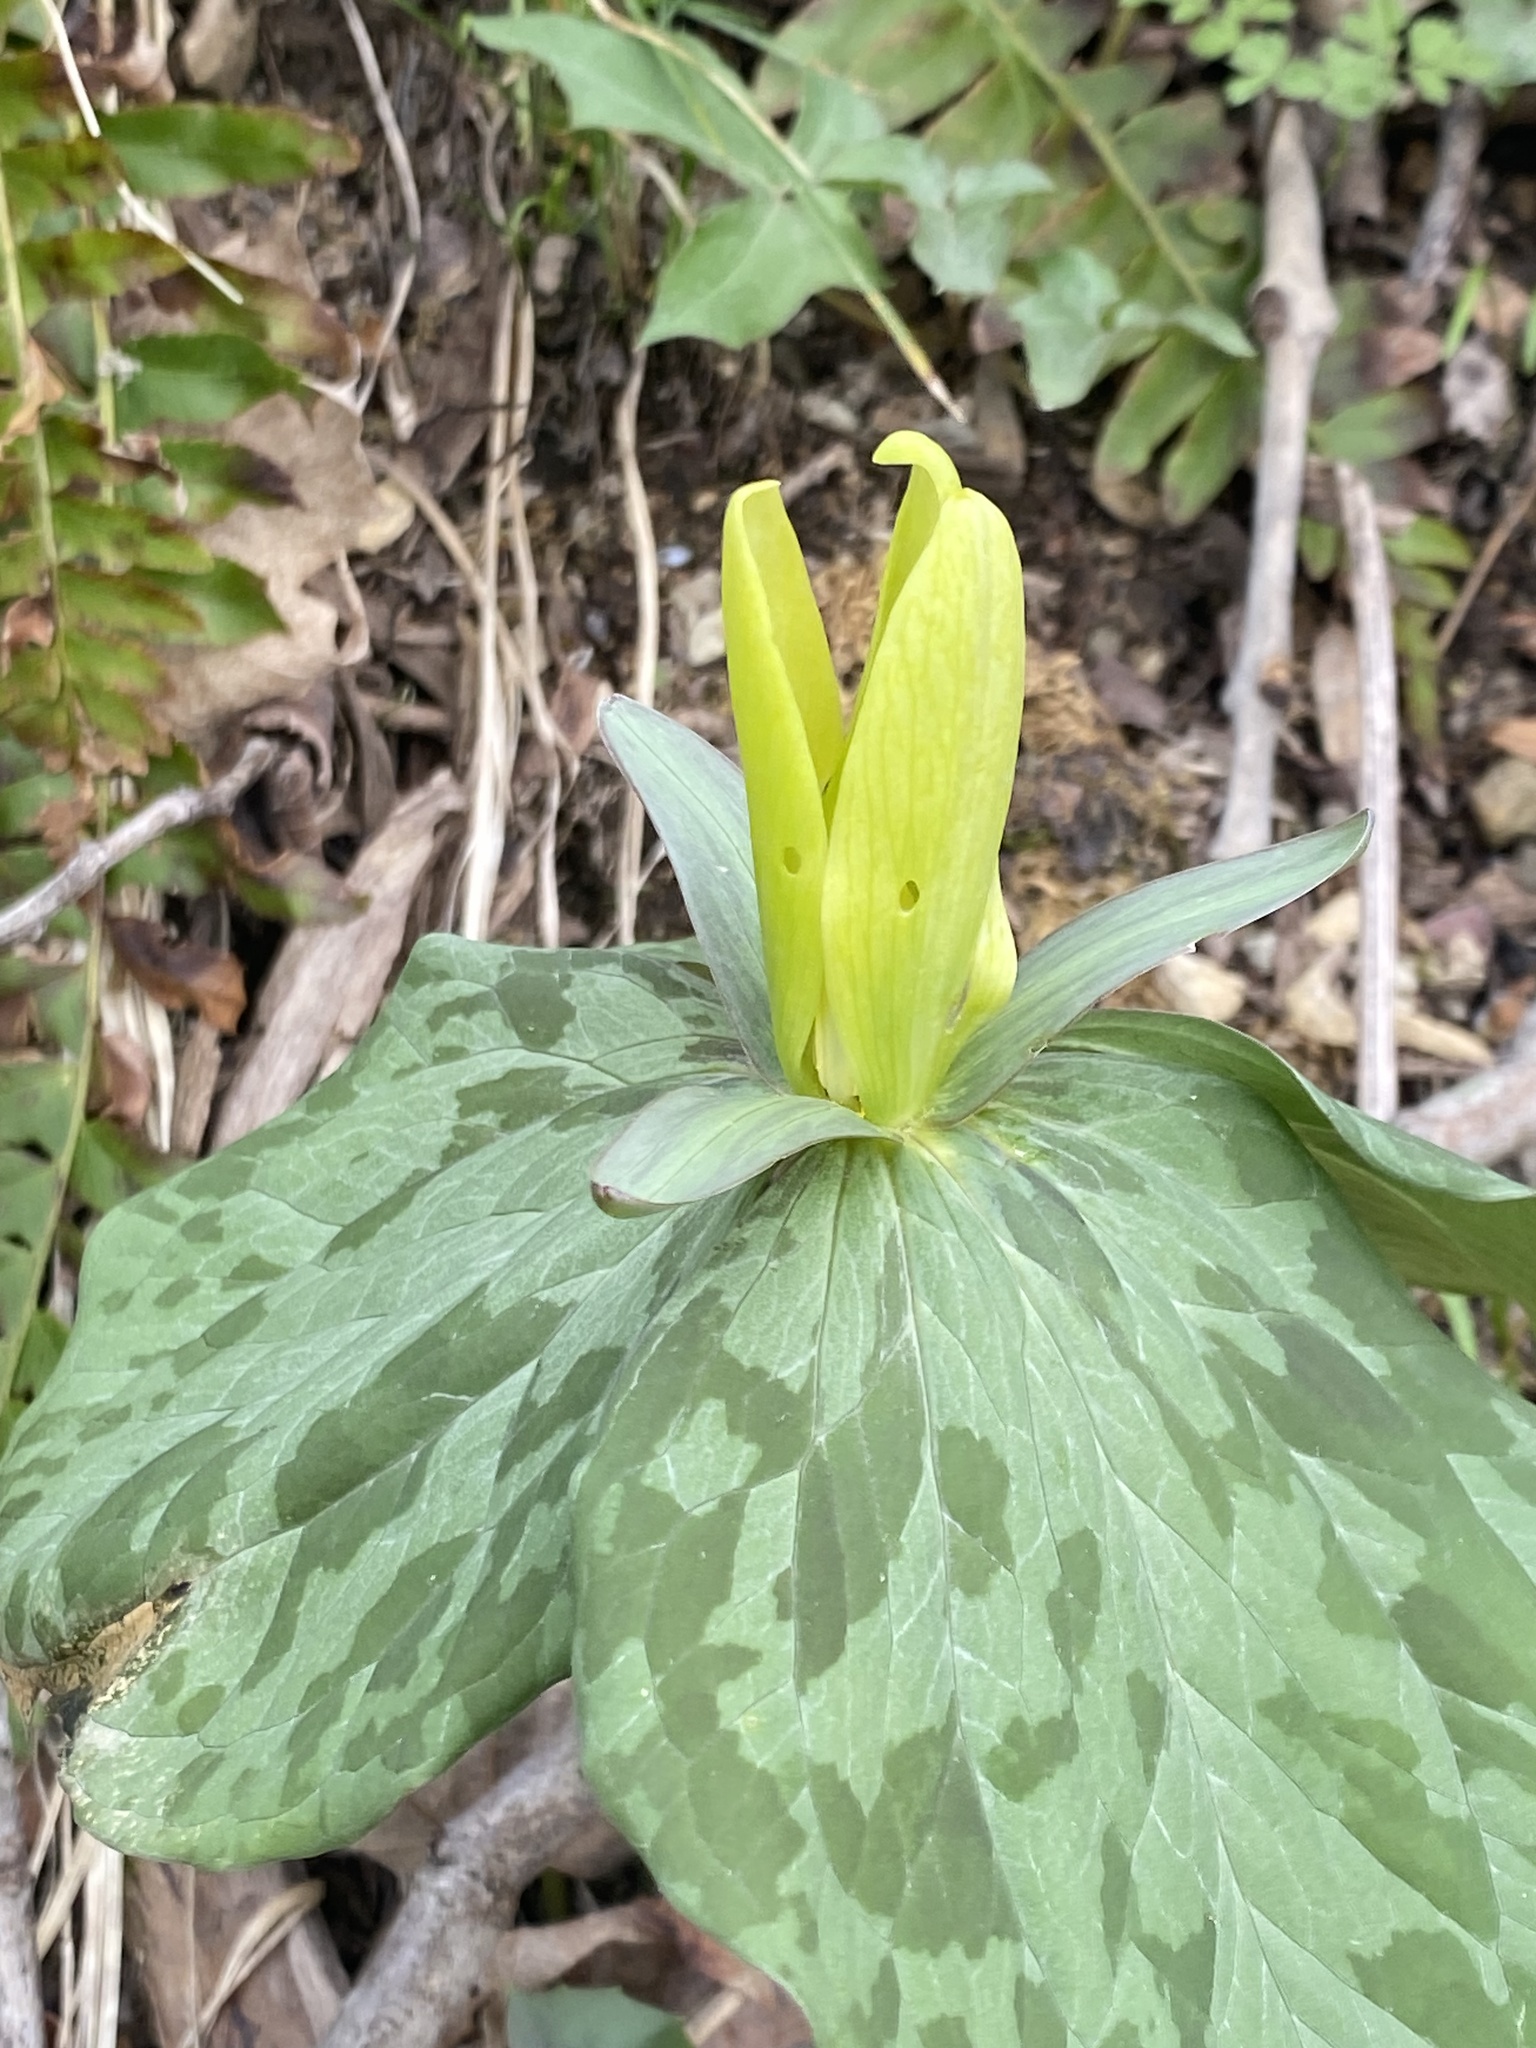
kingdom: Plantae
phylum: Tracheophyta
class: Liliopsida
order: Liliales
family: Melanthiaceae
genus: Trillium
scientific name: Trillium luteum
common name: Wax trillium
